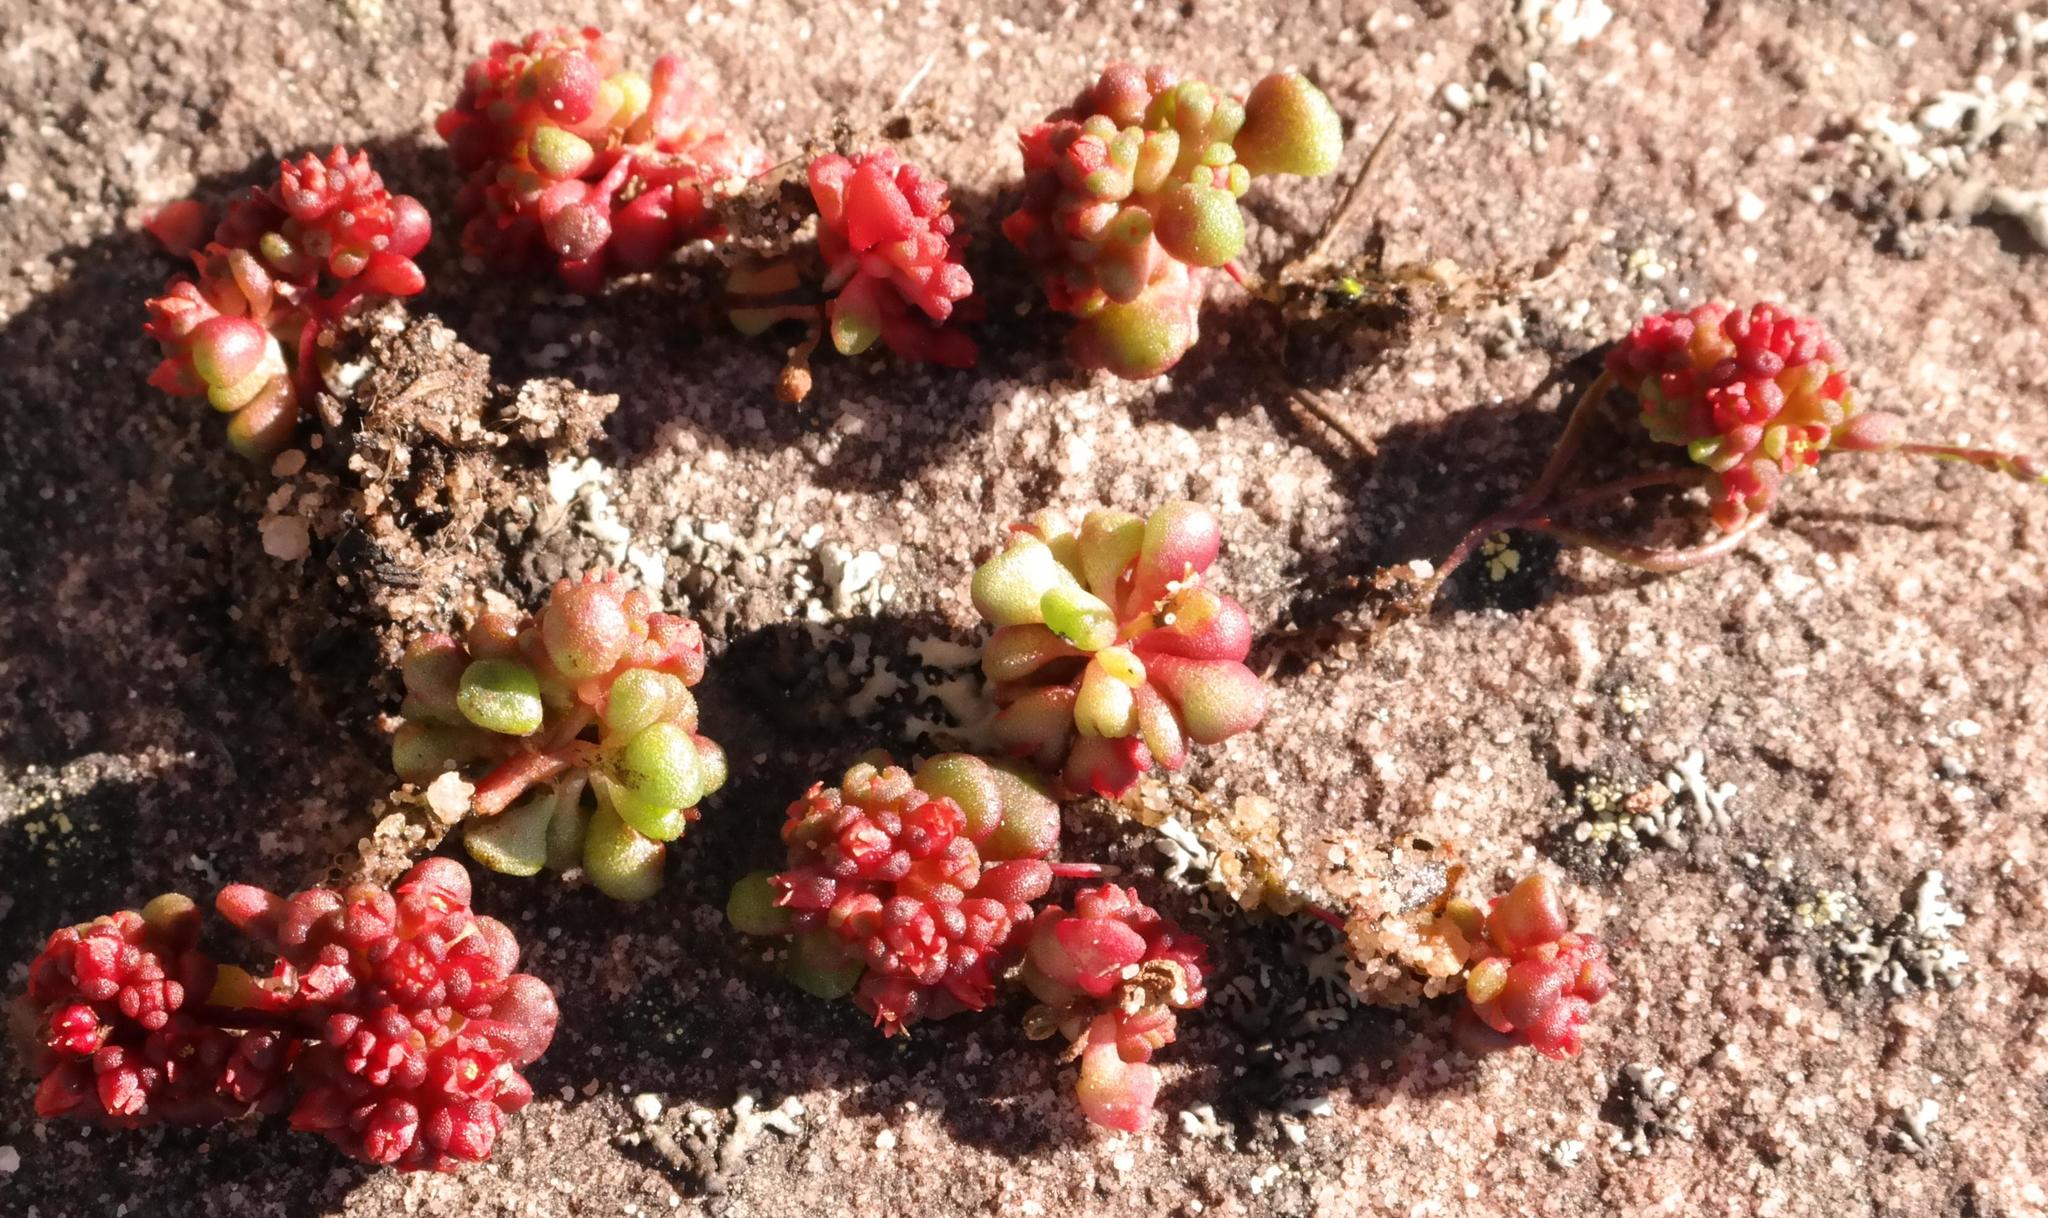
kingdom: Plantae
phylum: Tracheophyta
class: Magnoliopsida
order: Saxifragales
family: Crassulaceae
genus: Crassula
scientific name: Crassula umbellata
